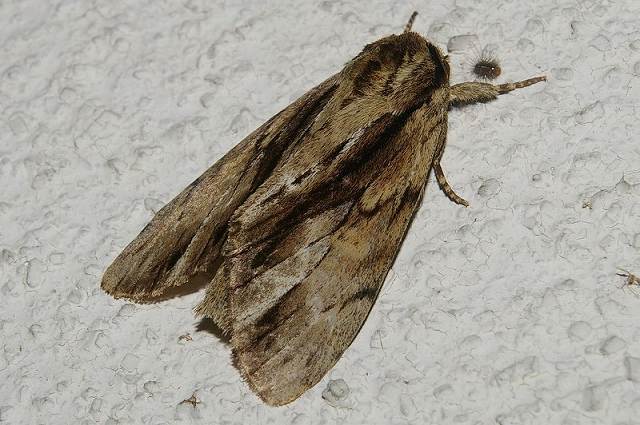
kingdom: Animalia
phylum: Arthropoda
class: Insecta
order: Lepidoptera
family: Notodontidae
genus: Shaka
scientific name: Shaka atrovittatus
